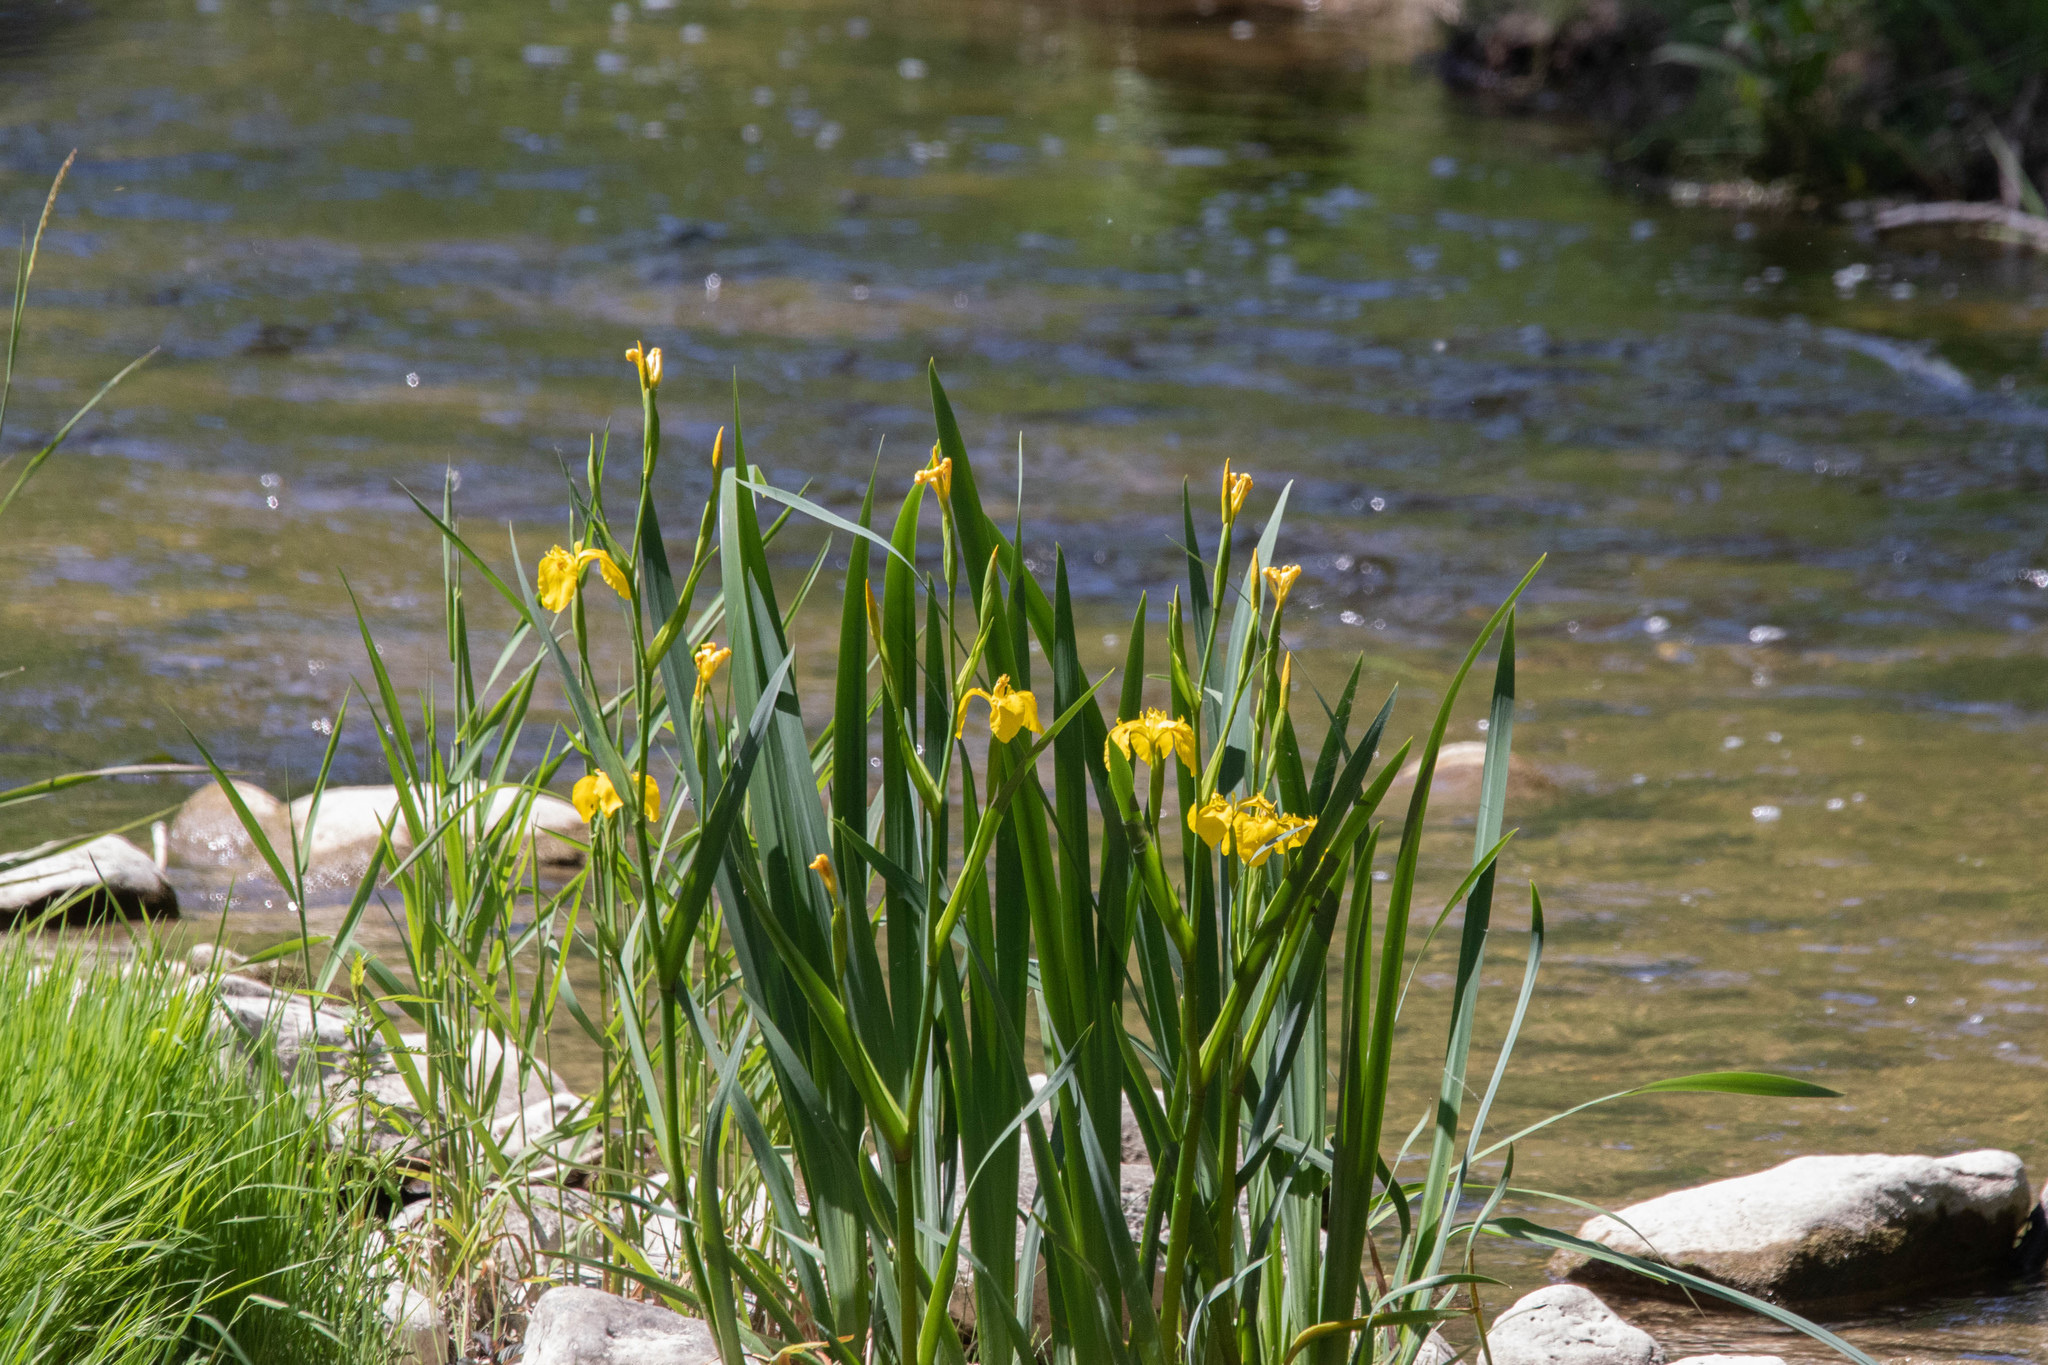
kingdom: Plantae
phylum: Tracheophyta
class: Liliopsida
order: Asparagales
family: Iridaceae
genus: Iris
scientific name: Iris pseudacorus
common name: Yellow flag
